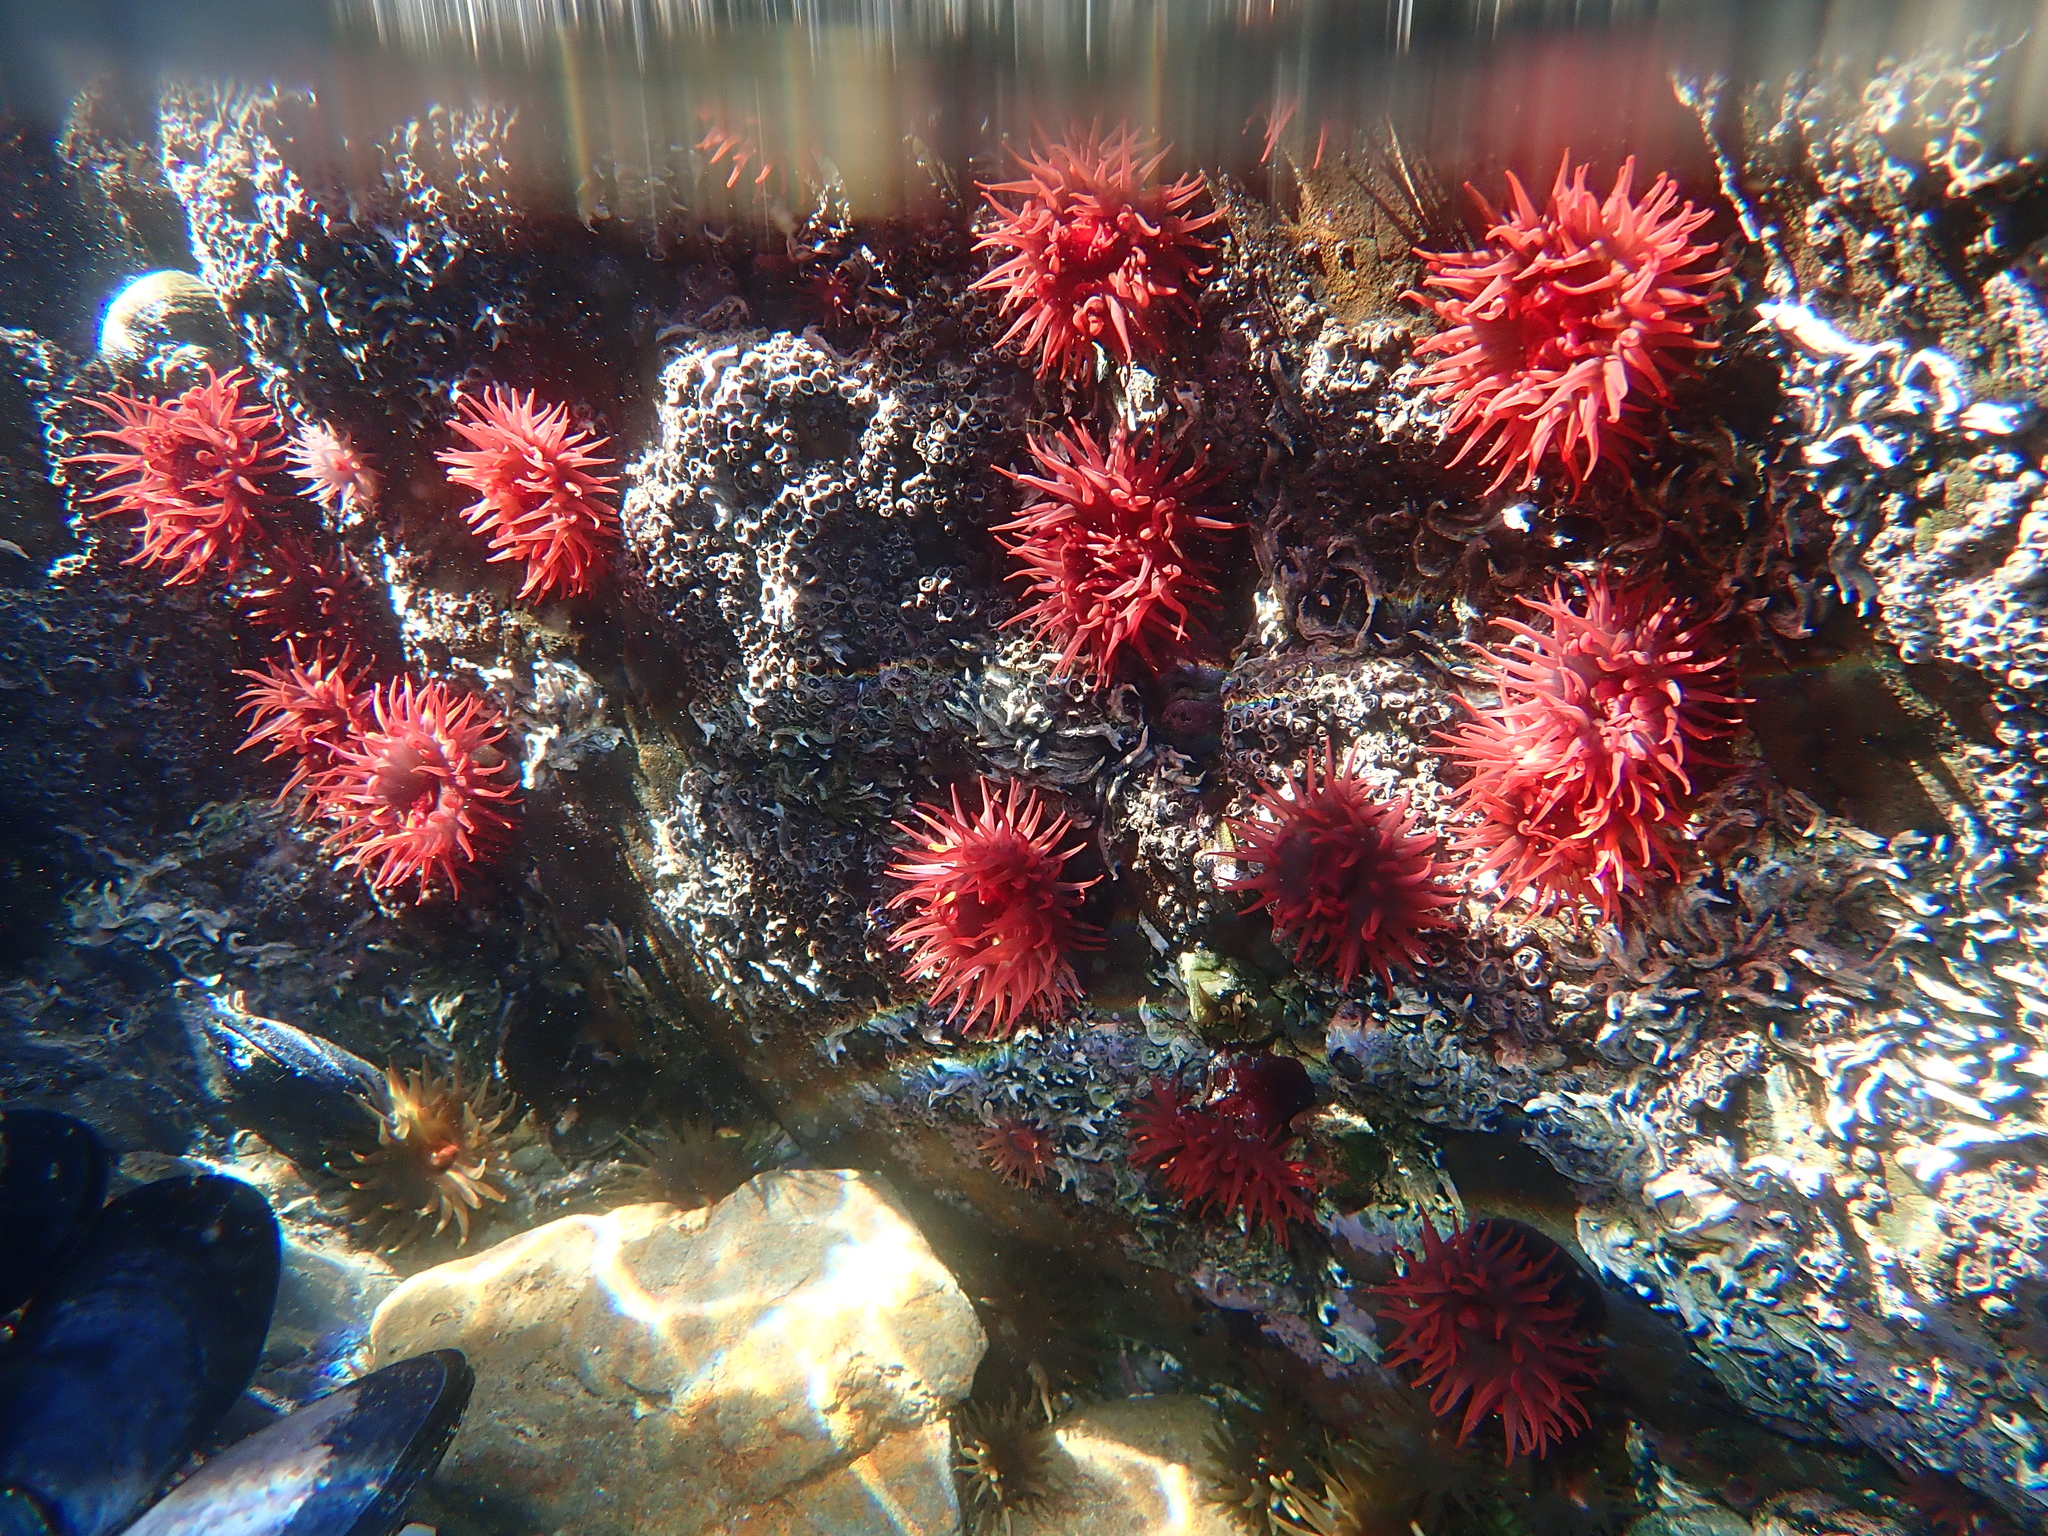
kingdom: Animalia
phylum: Cnidaria
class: Anthozoa
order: Actiniaria
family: Actiniidae
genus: Actinia
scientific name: Actinia tenebrosa
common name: Waratah anemone
